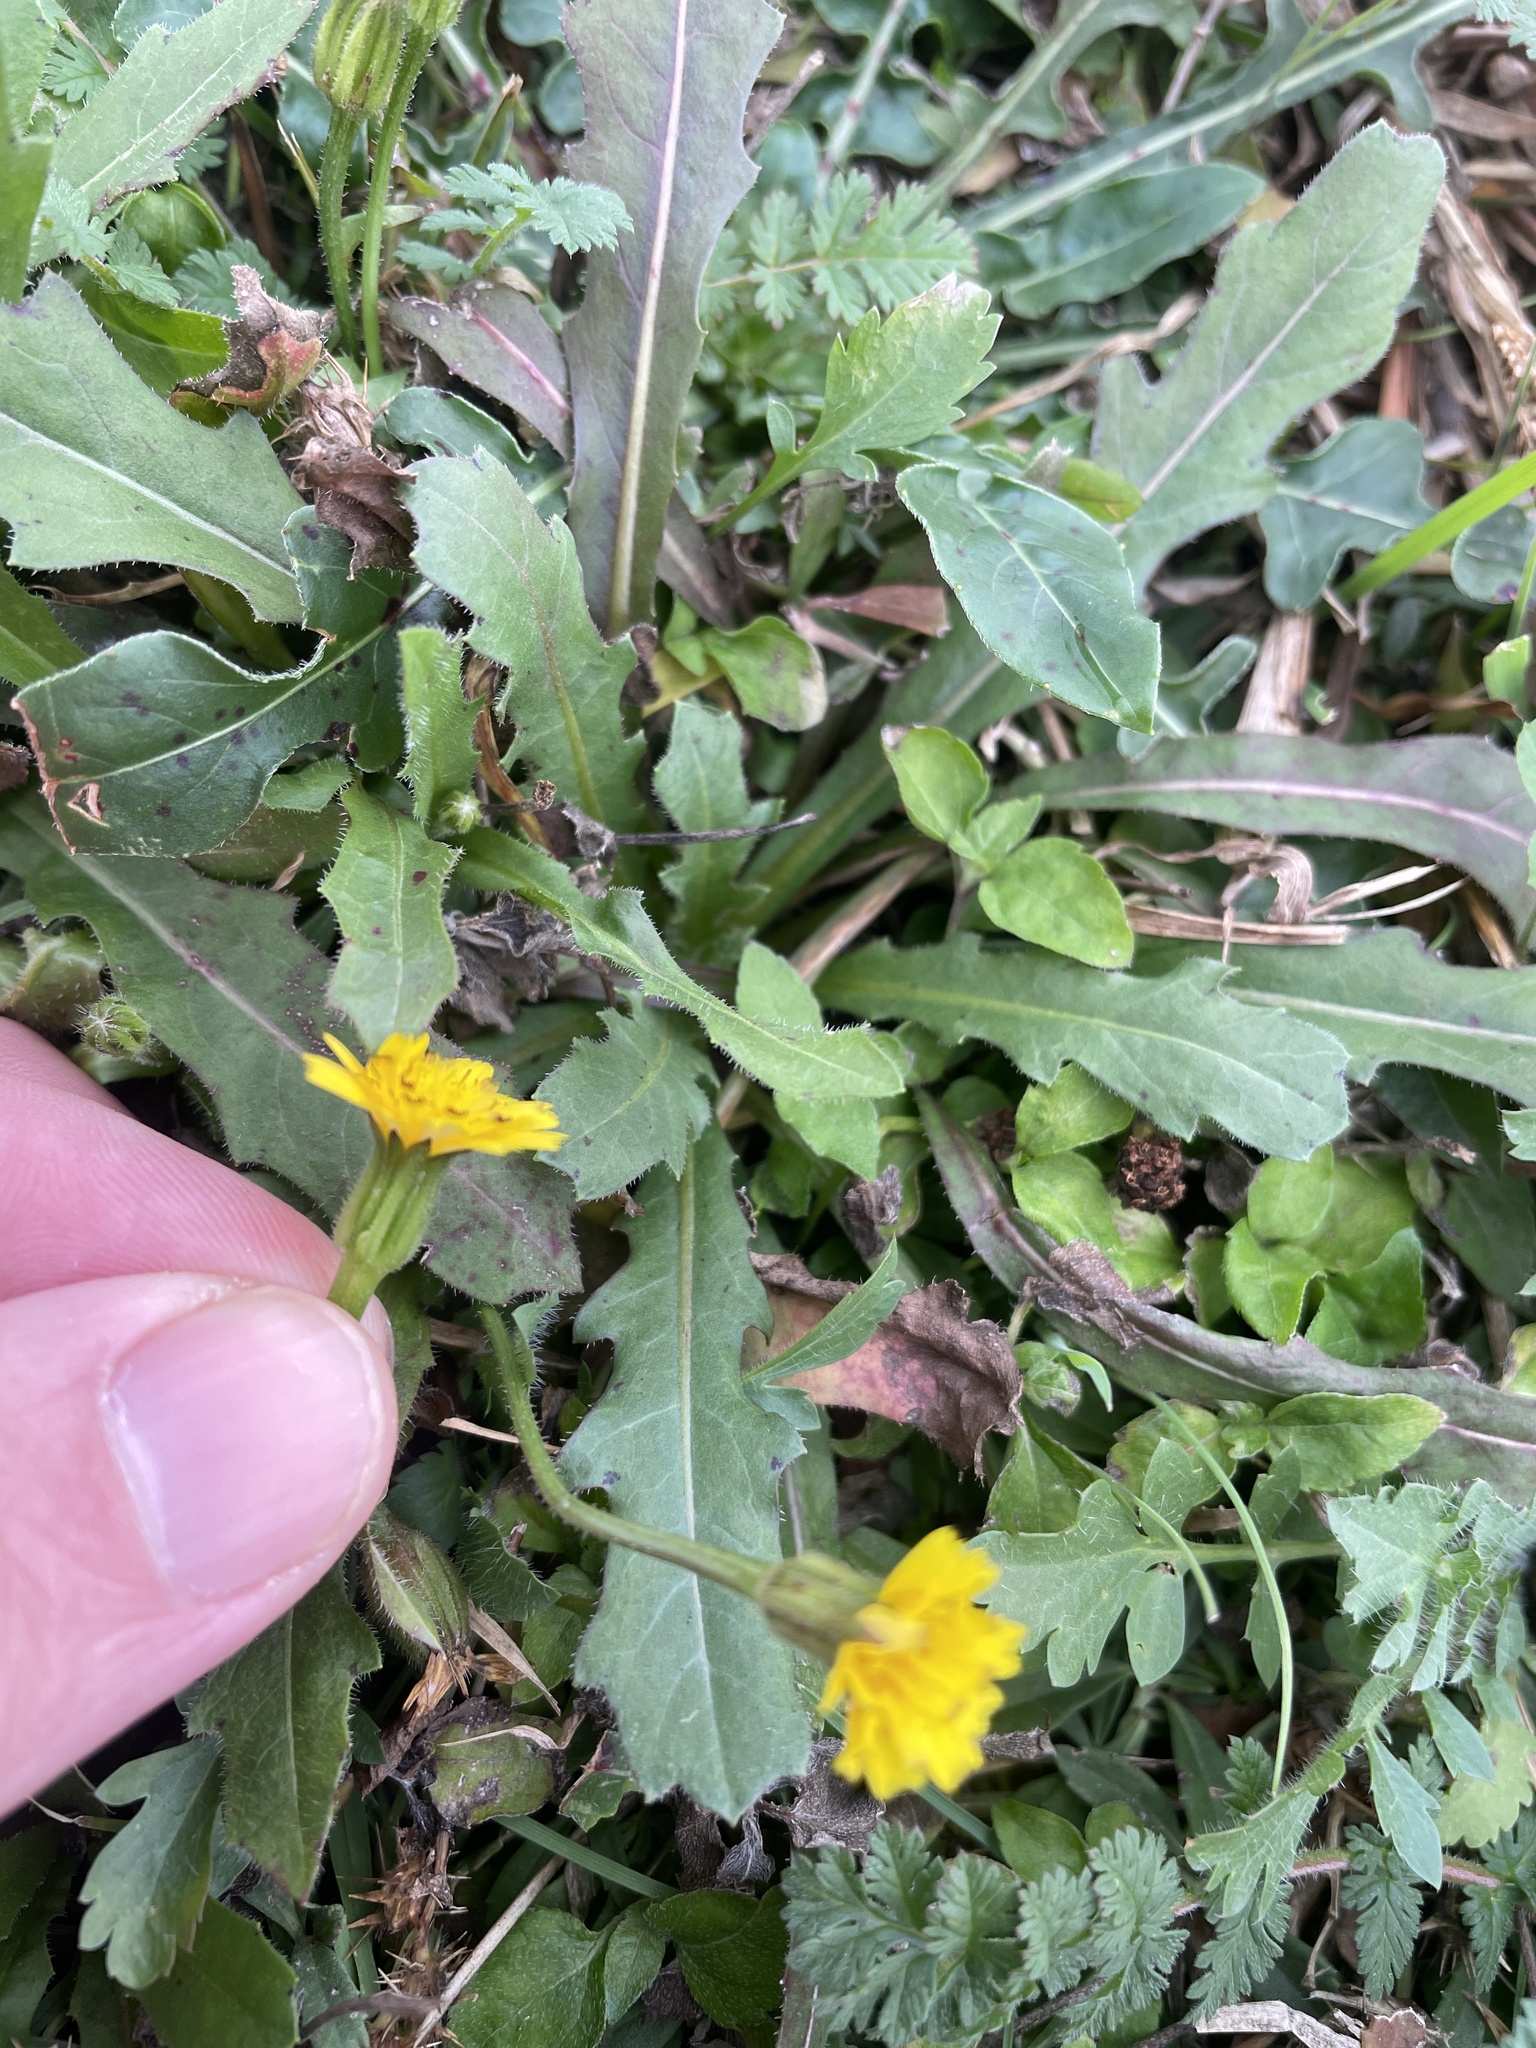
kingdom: Plantae
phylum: Tracheophyta
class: Magnoliopsida
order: Asterales
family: Asteraceae
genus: Hedypnois
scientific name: Hedypnois rhagadioloides
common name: Cretan weed
